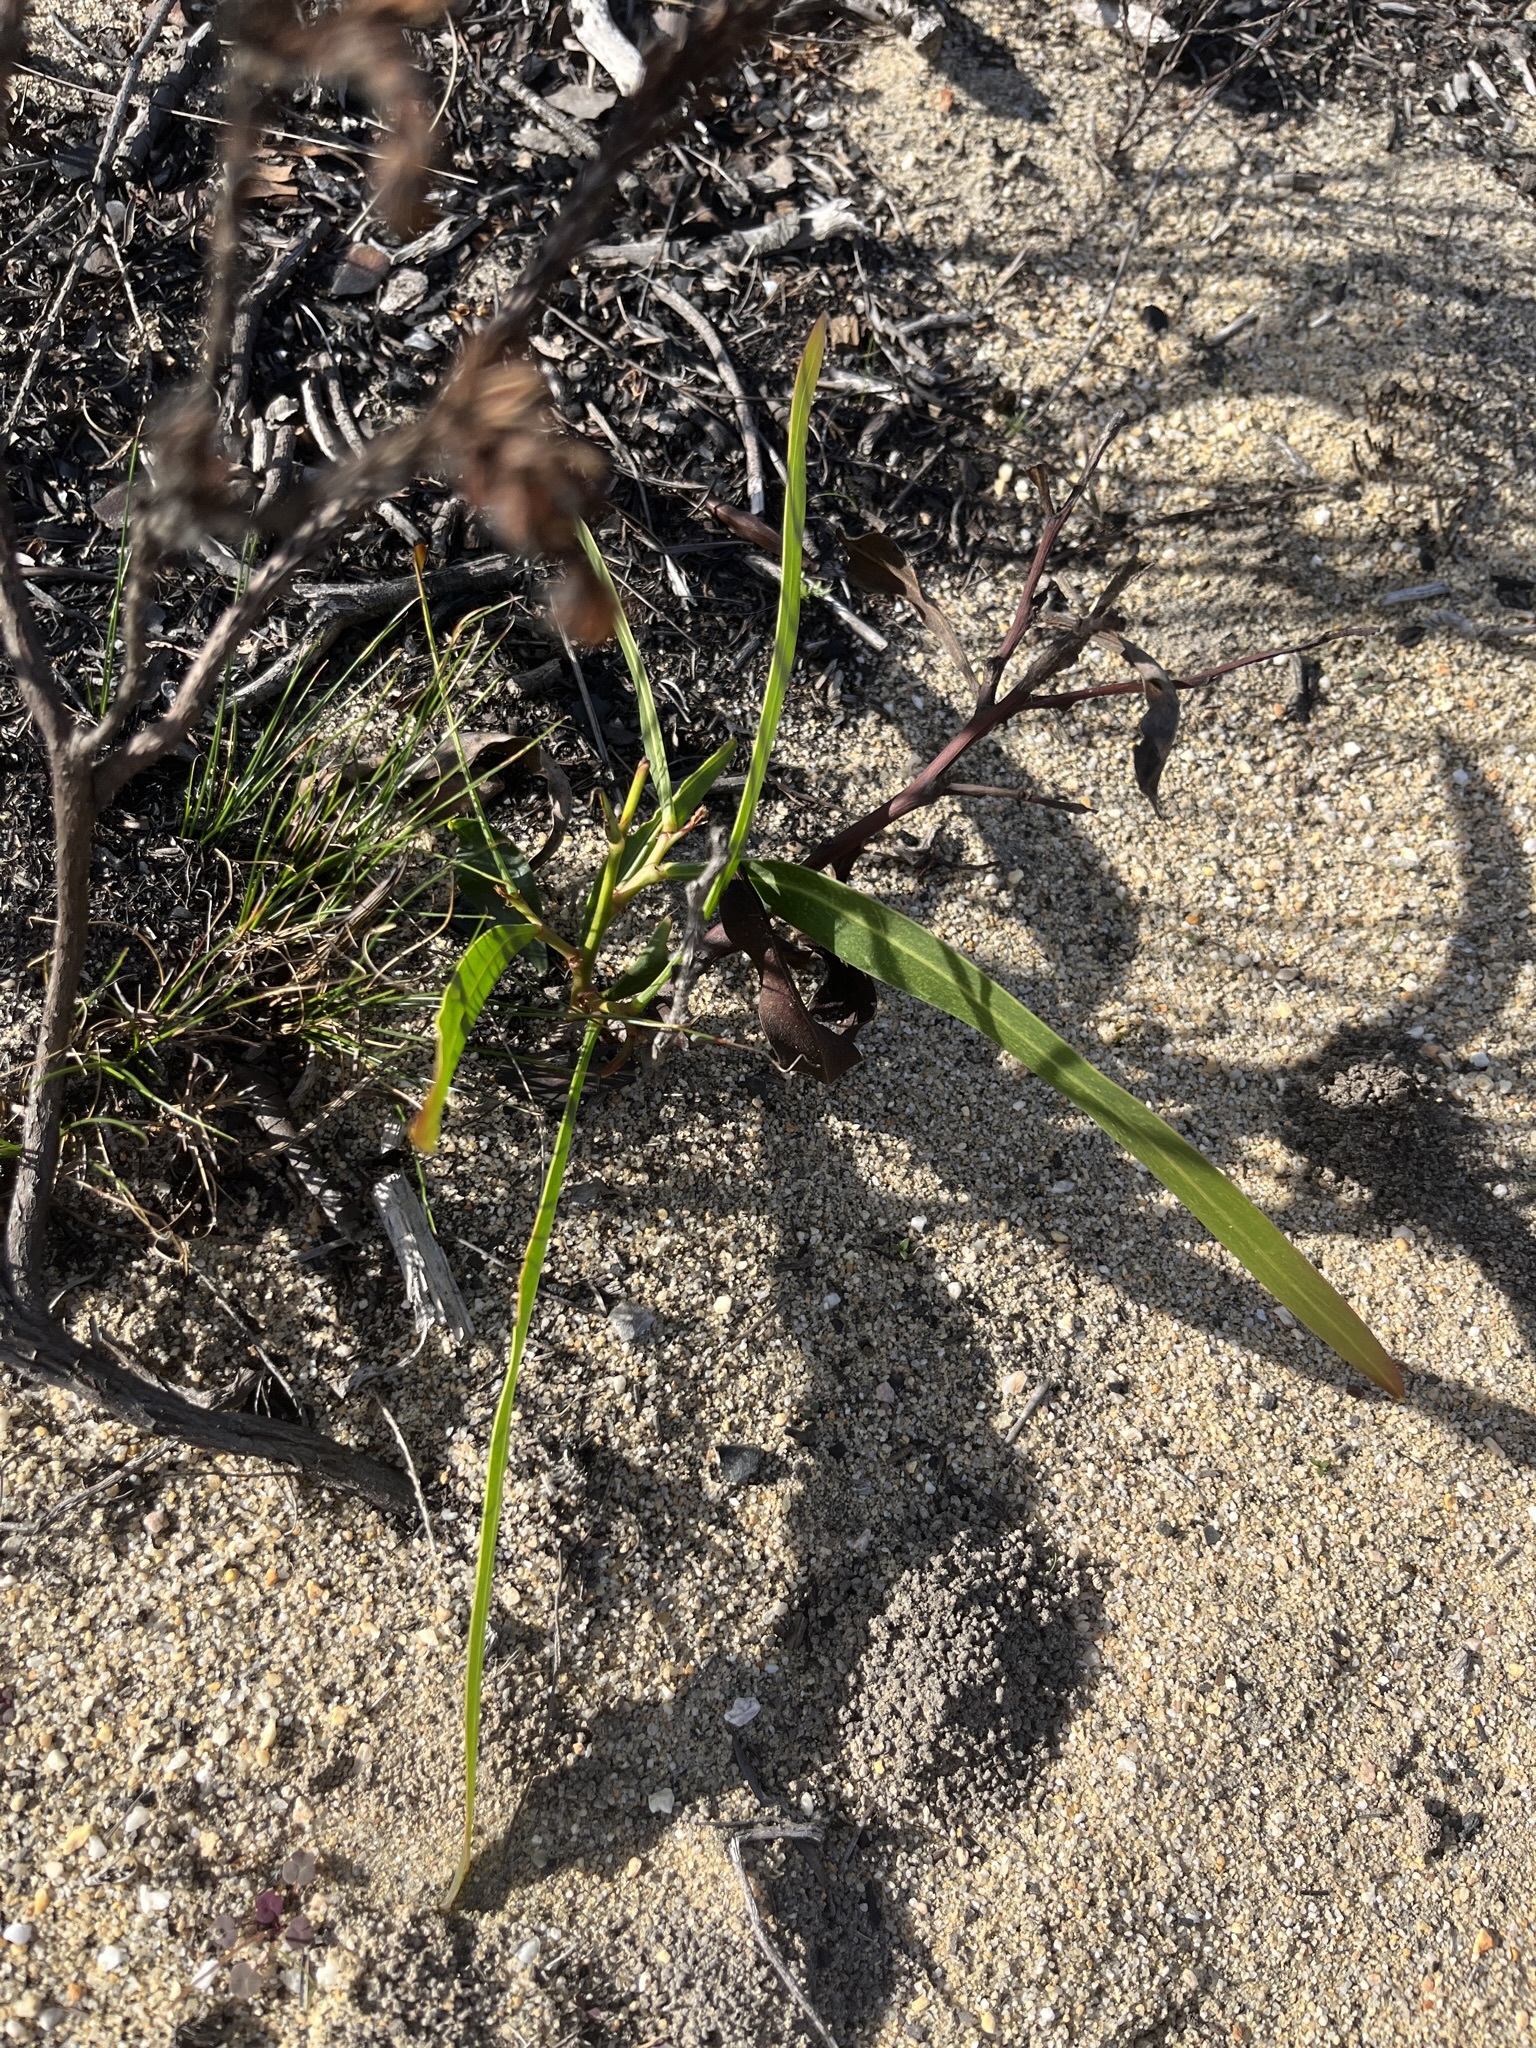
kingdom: Plantae
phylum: Tracheophyta
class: Magnoliopsida
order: Fabales
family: Fabaceae
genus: Acacia
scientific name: Acacia saligna
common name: Orange wattle
